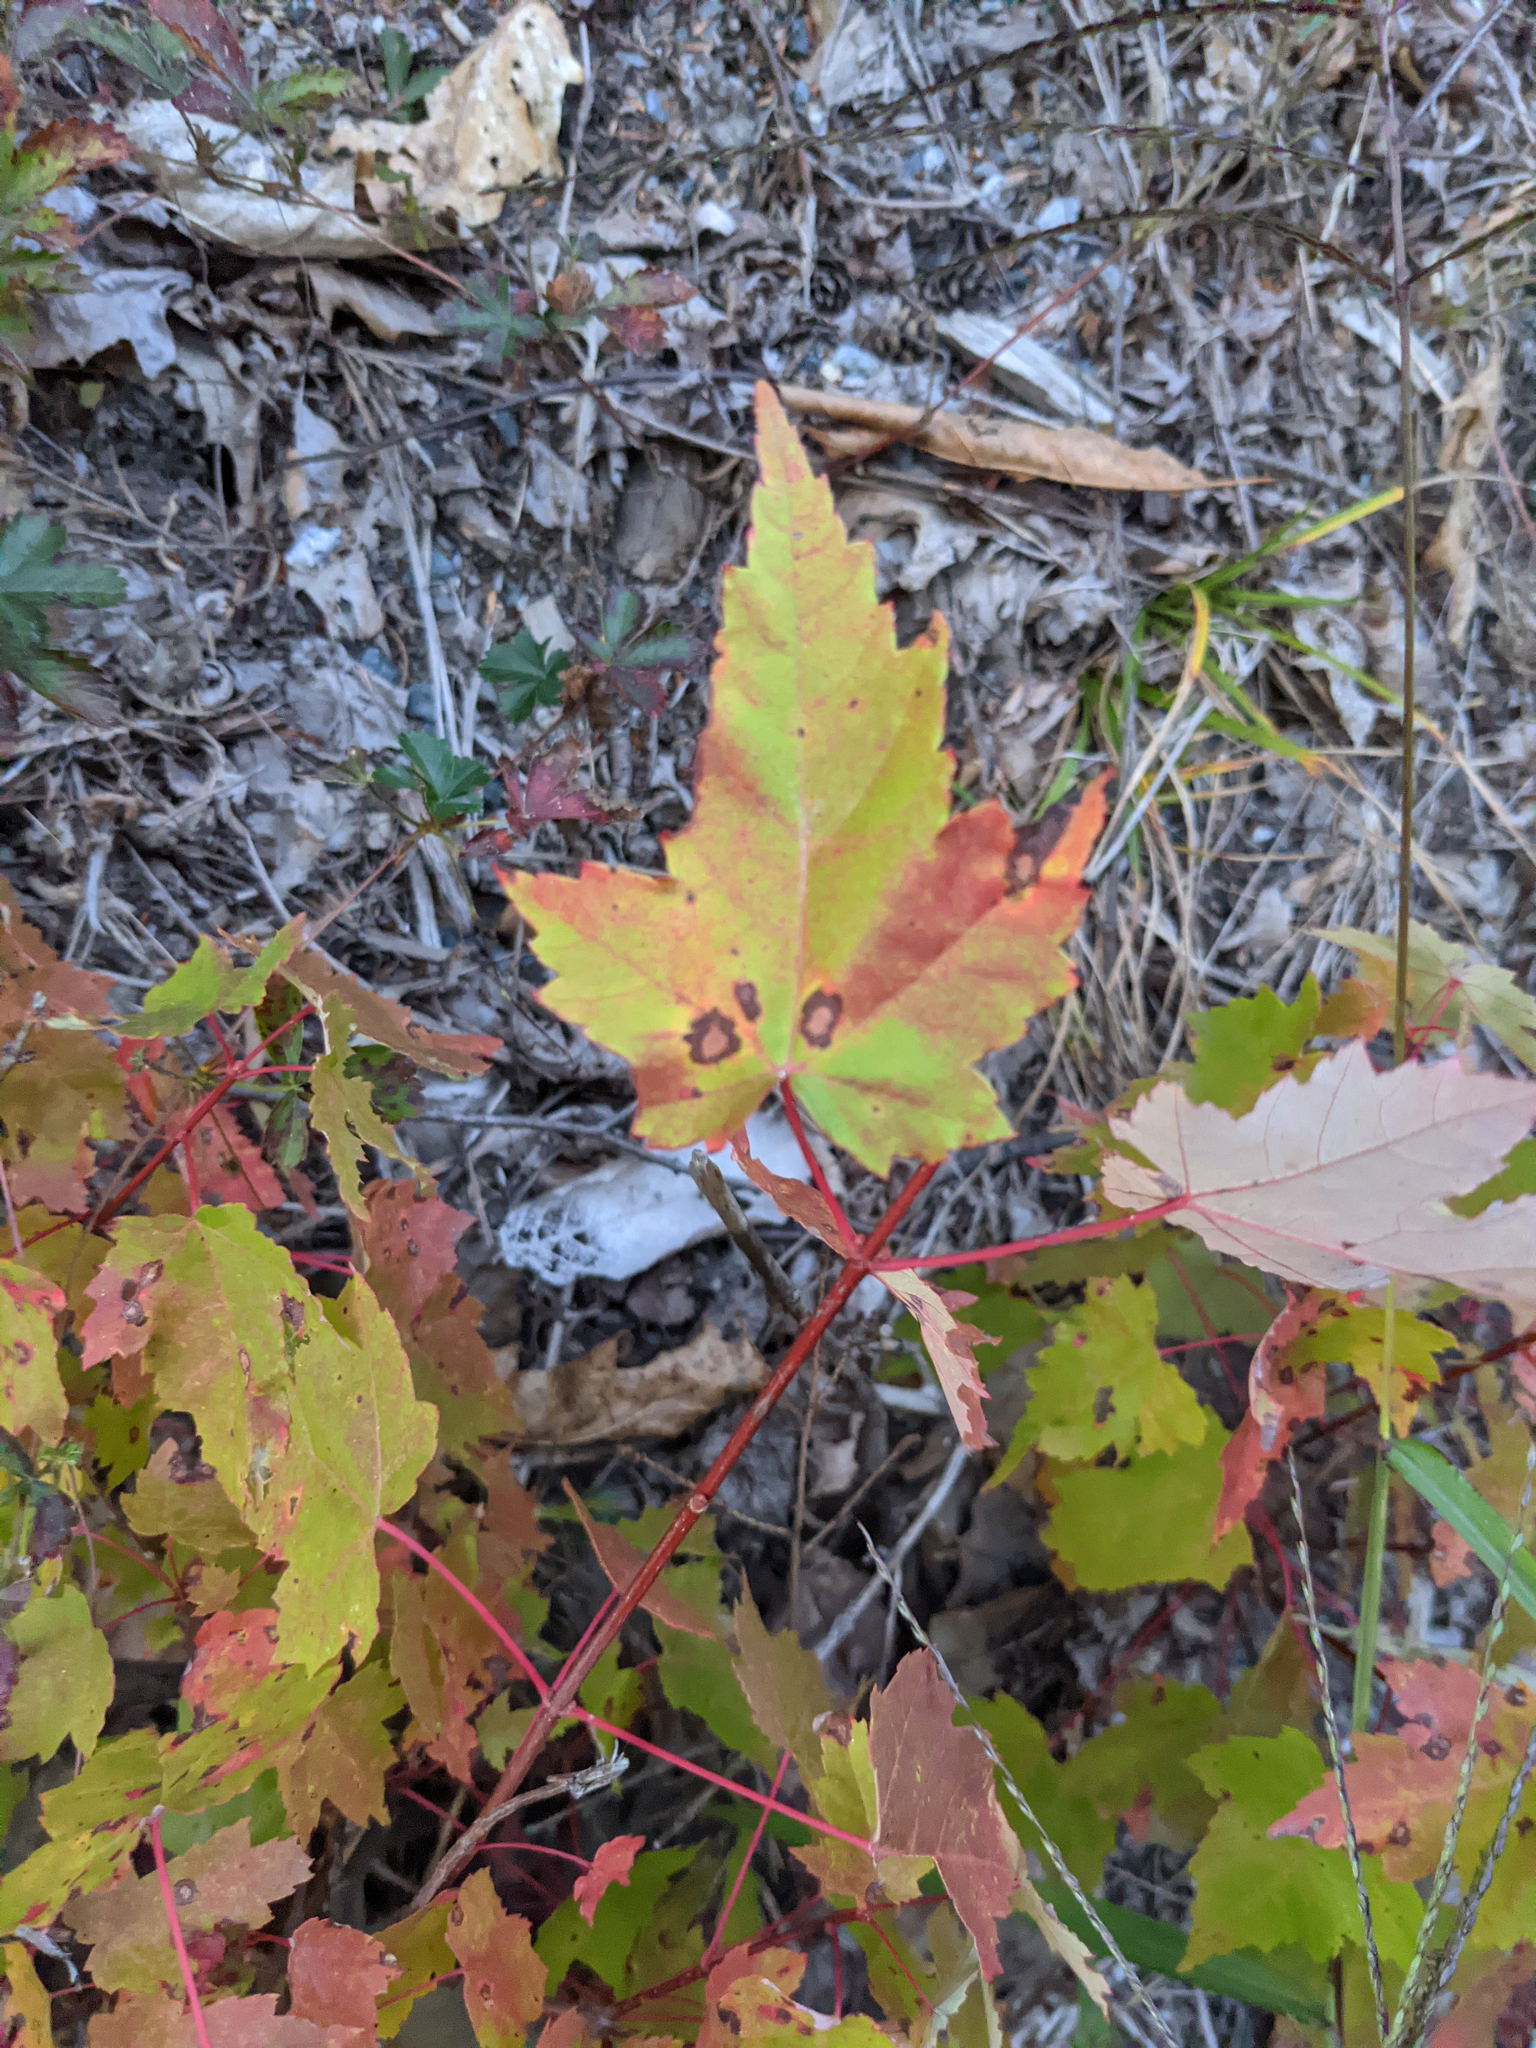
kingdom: Plantae
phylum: Tracheophyta
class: Magnoliopsida
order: Sapindales
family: Sapindaceae
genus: Acer
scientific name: Acer rubrum
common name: Red maple
